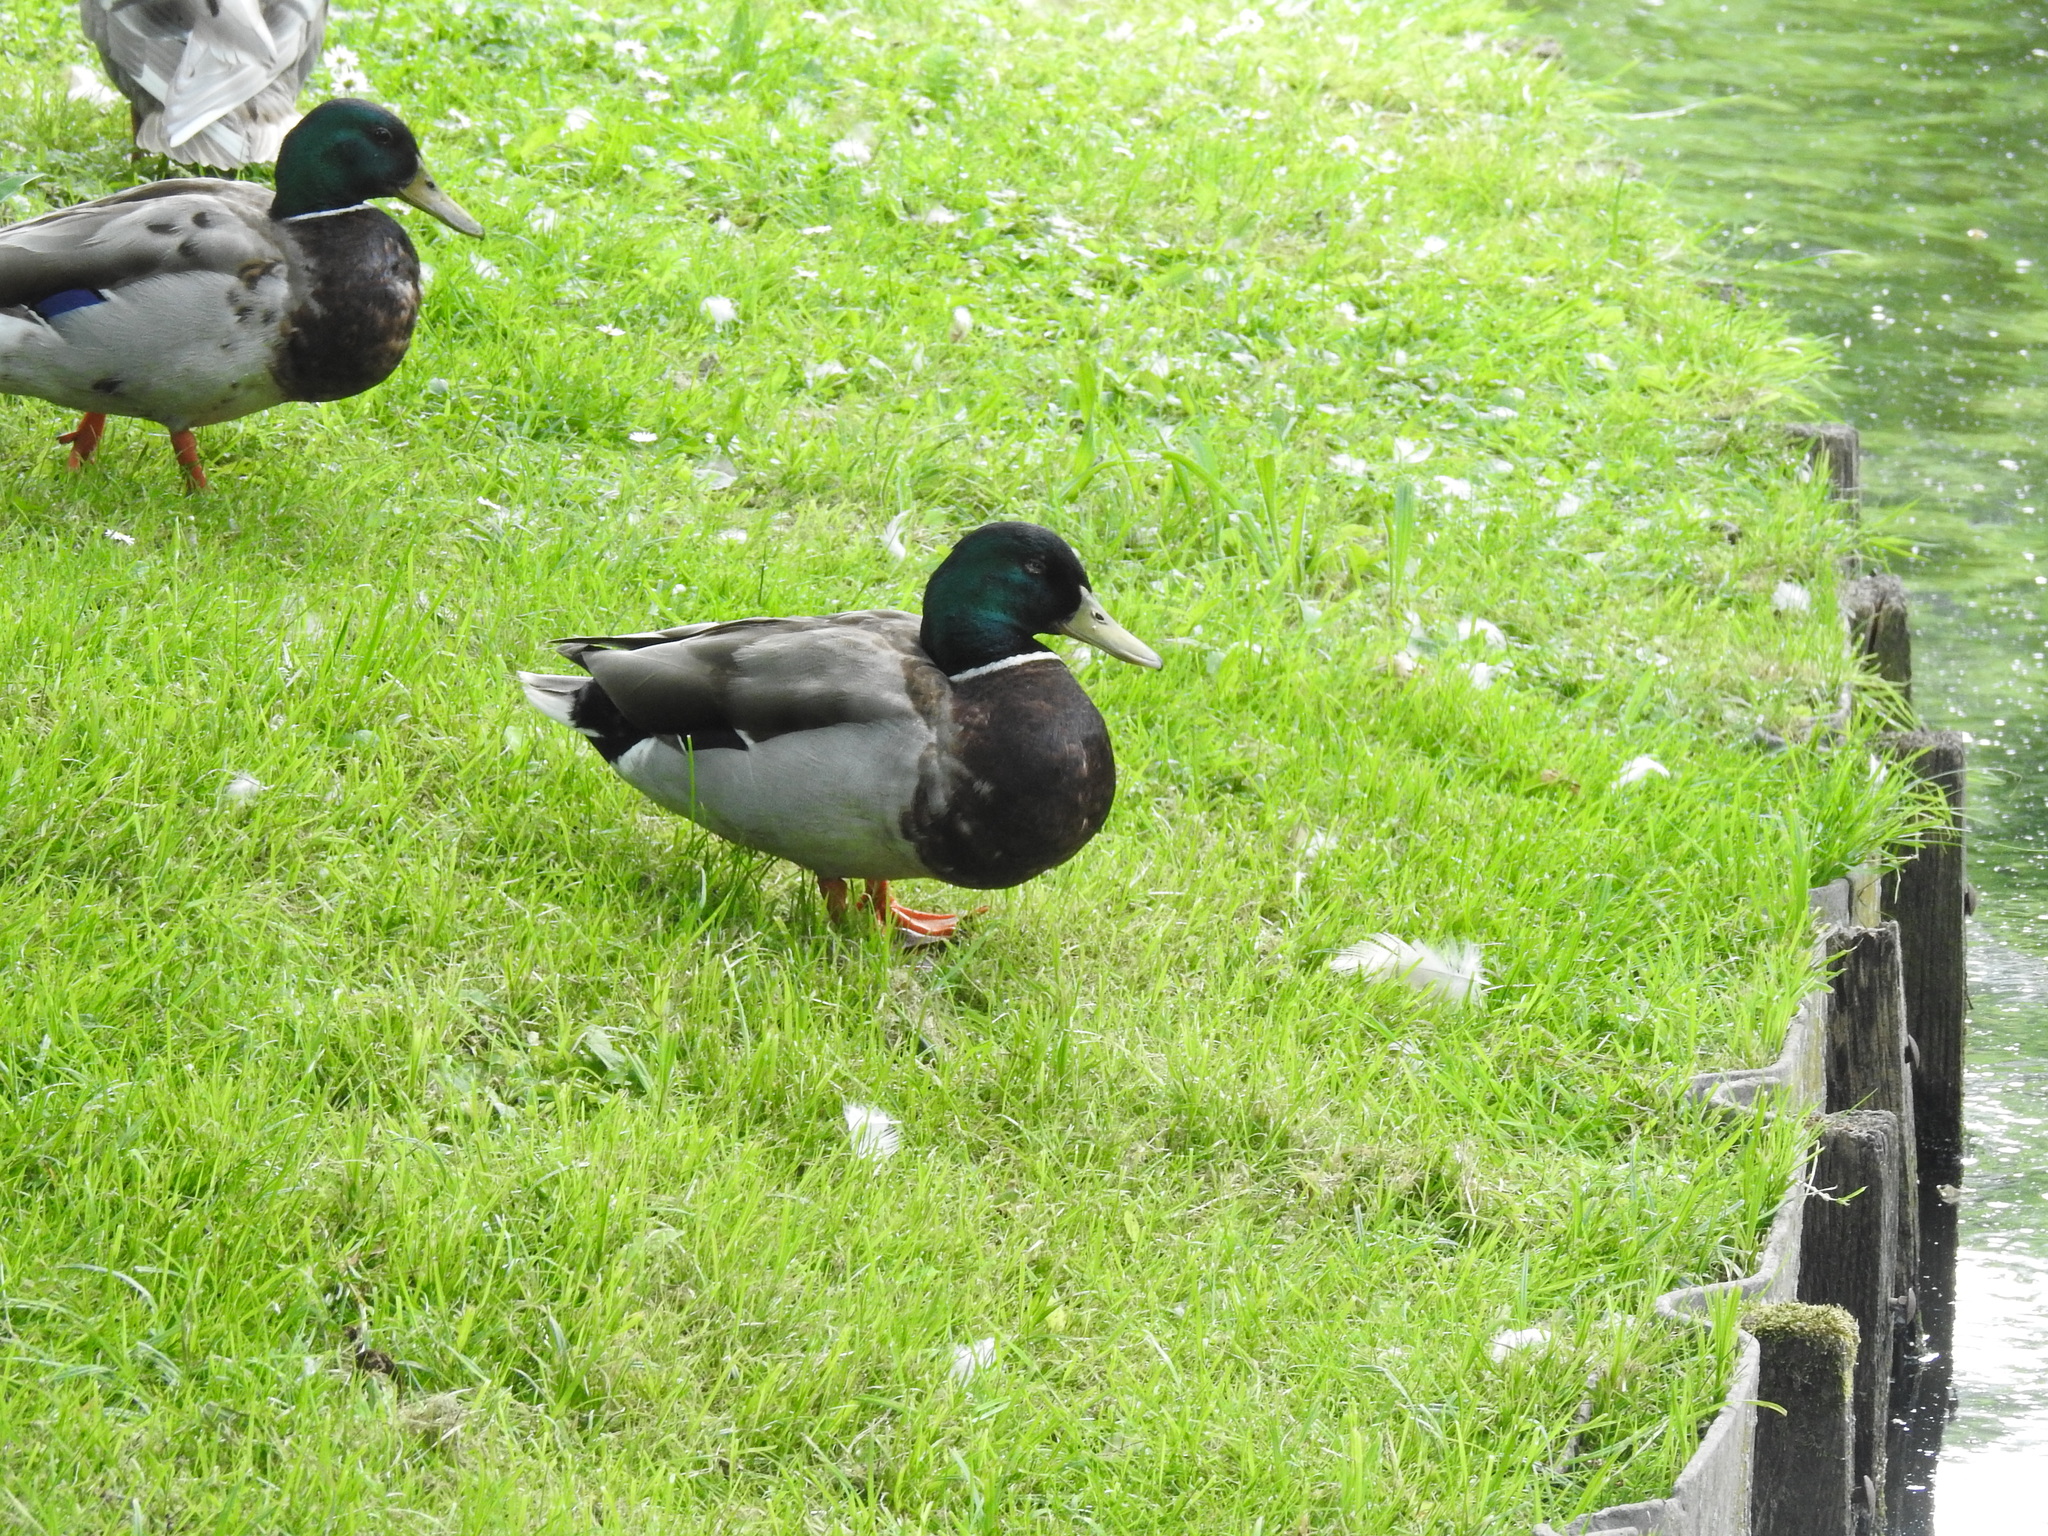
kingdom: Animalia
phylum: Chordata
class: Aves
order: Anseriformes
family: Anatidae
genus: Anas
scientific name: Anas platyrhynchos
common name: Mallard
